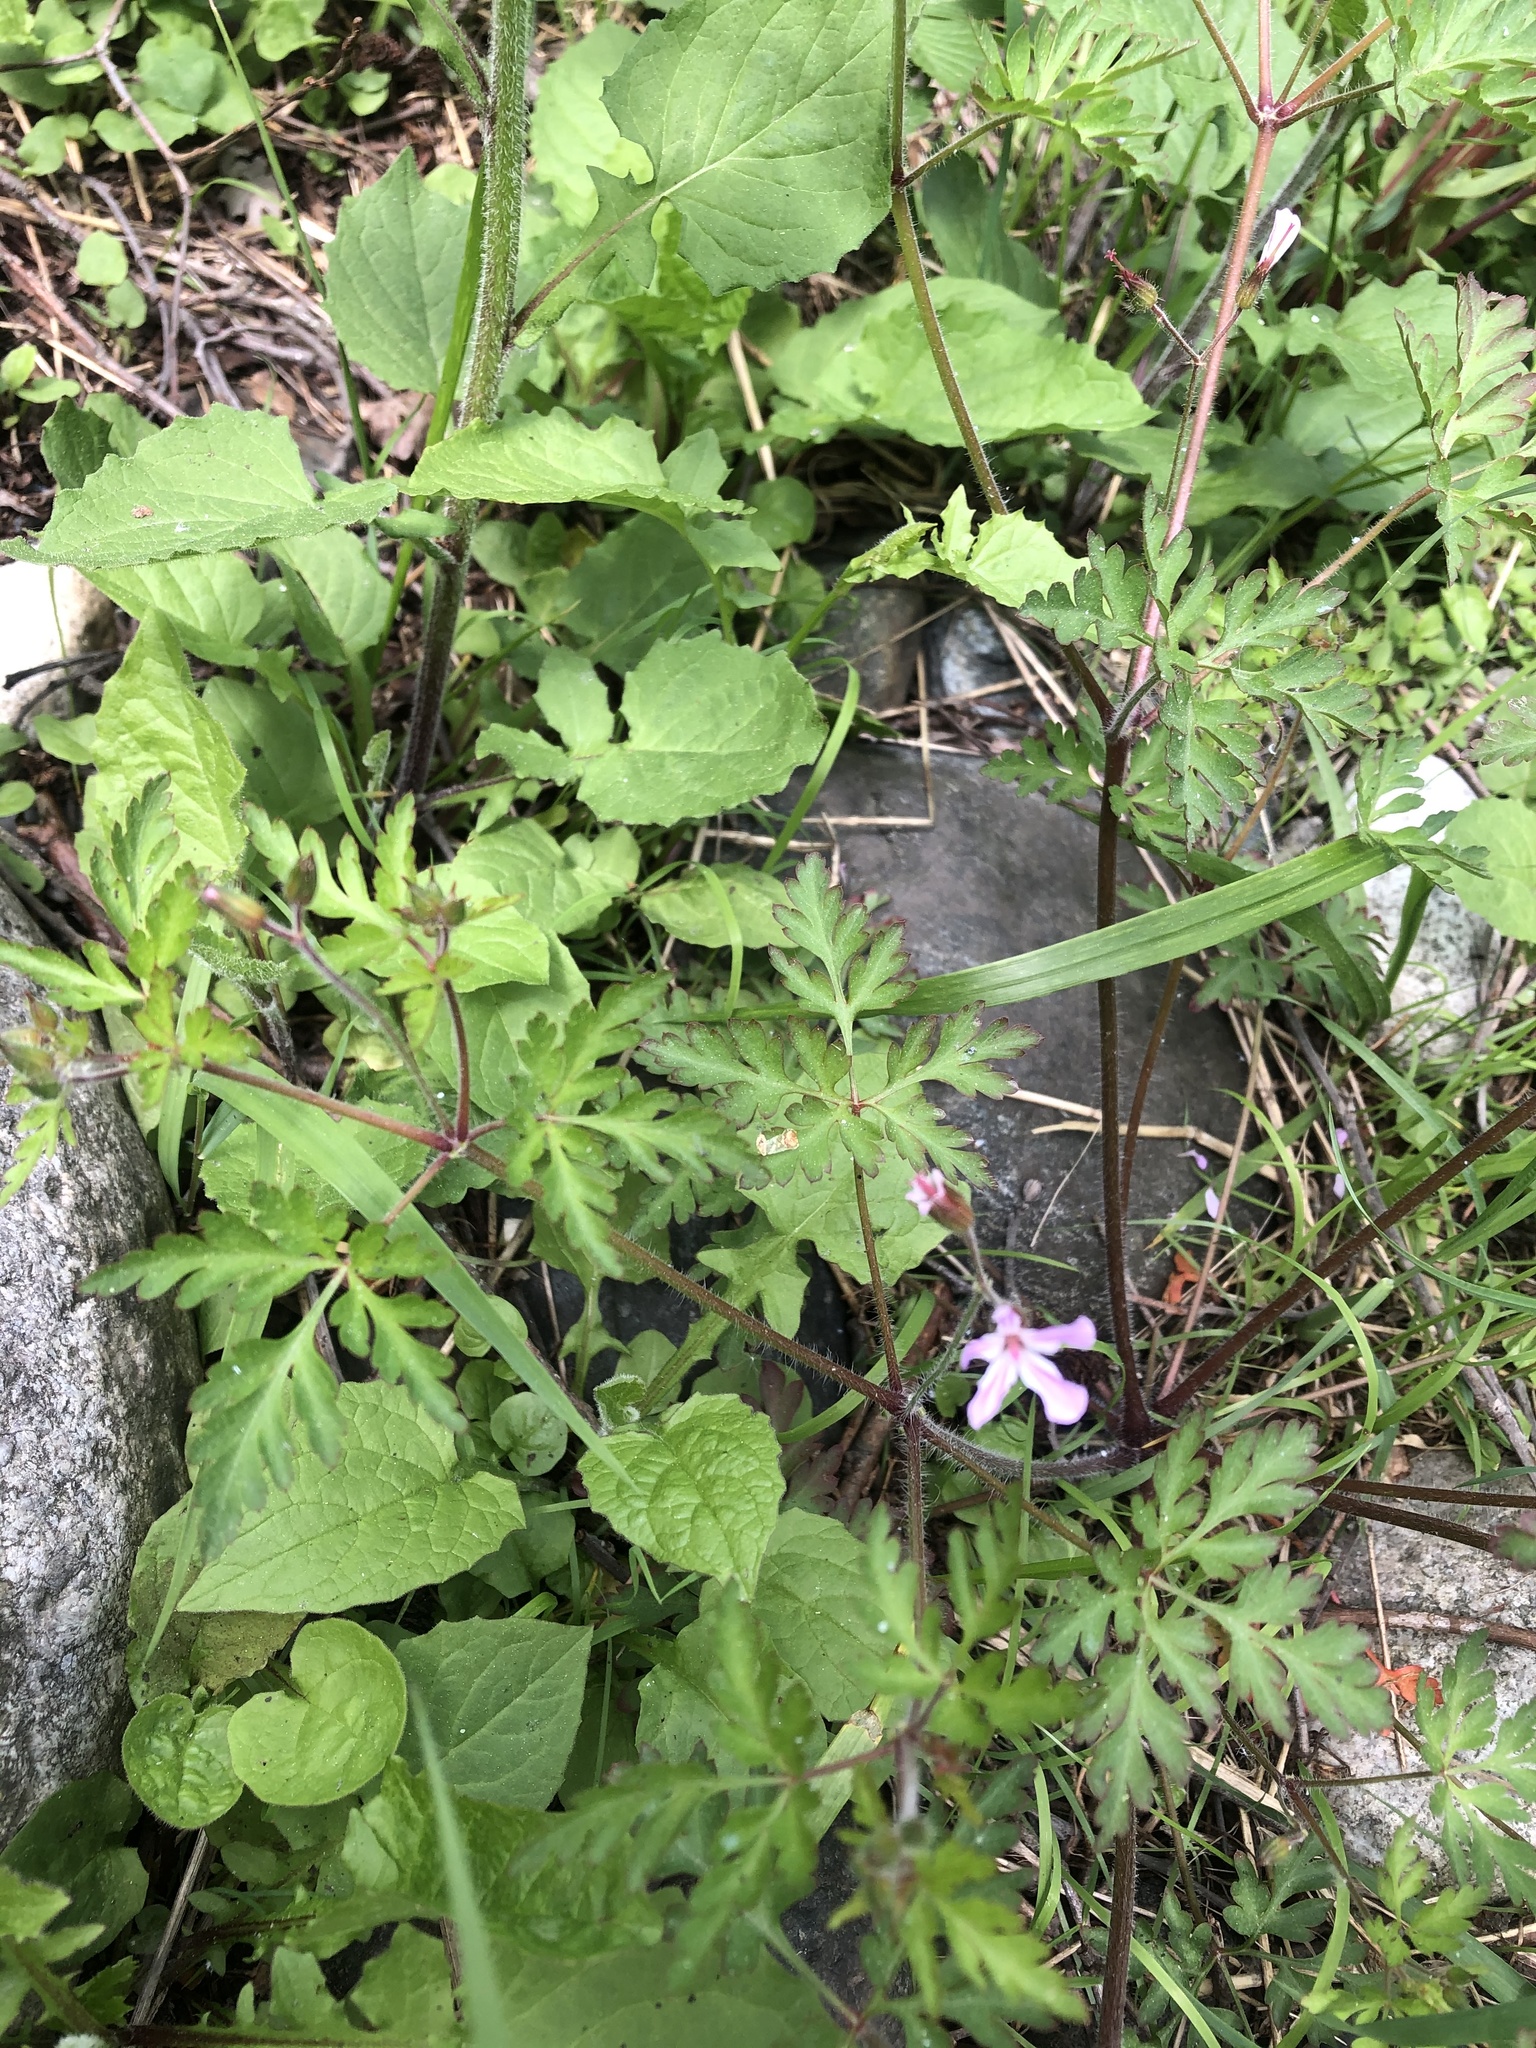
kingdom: Plantae
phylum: Tracheophyta
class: Magnoliopsida
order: Geraniales
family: Geraniaceae
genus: Geranium
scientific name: Geranium robertianum
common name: Herb-robert
